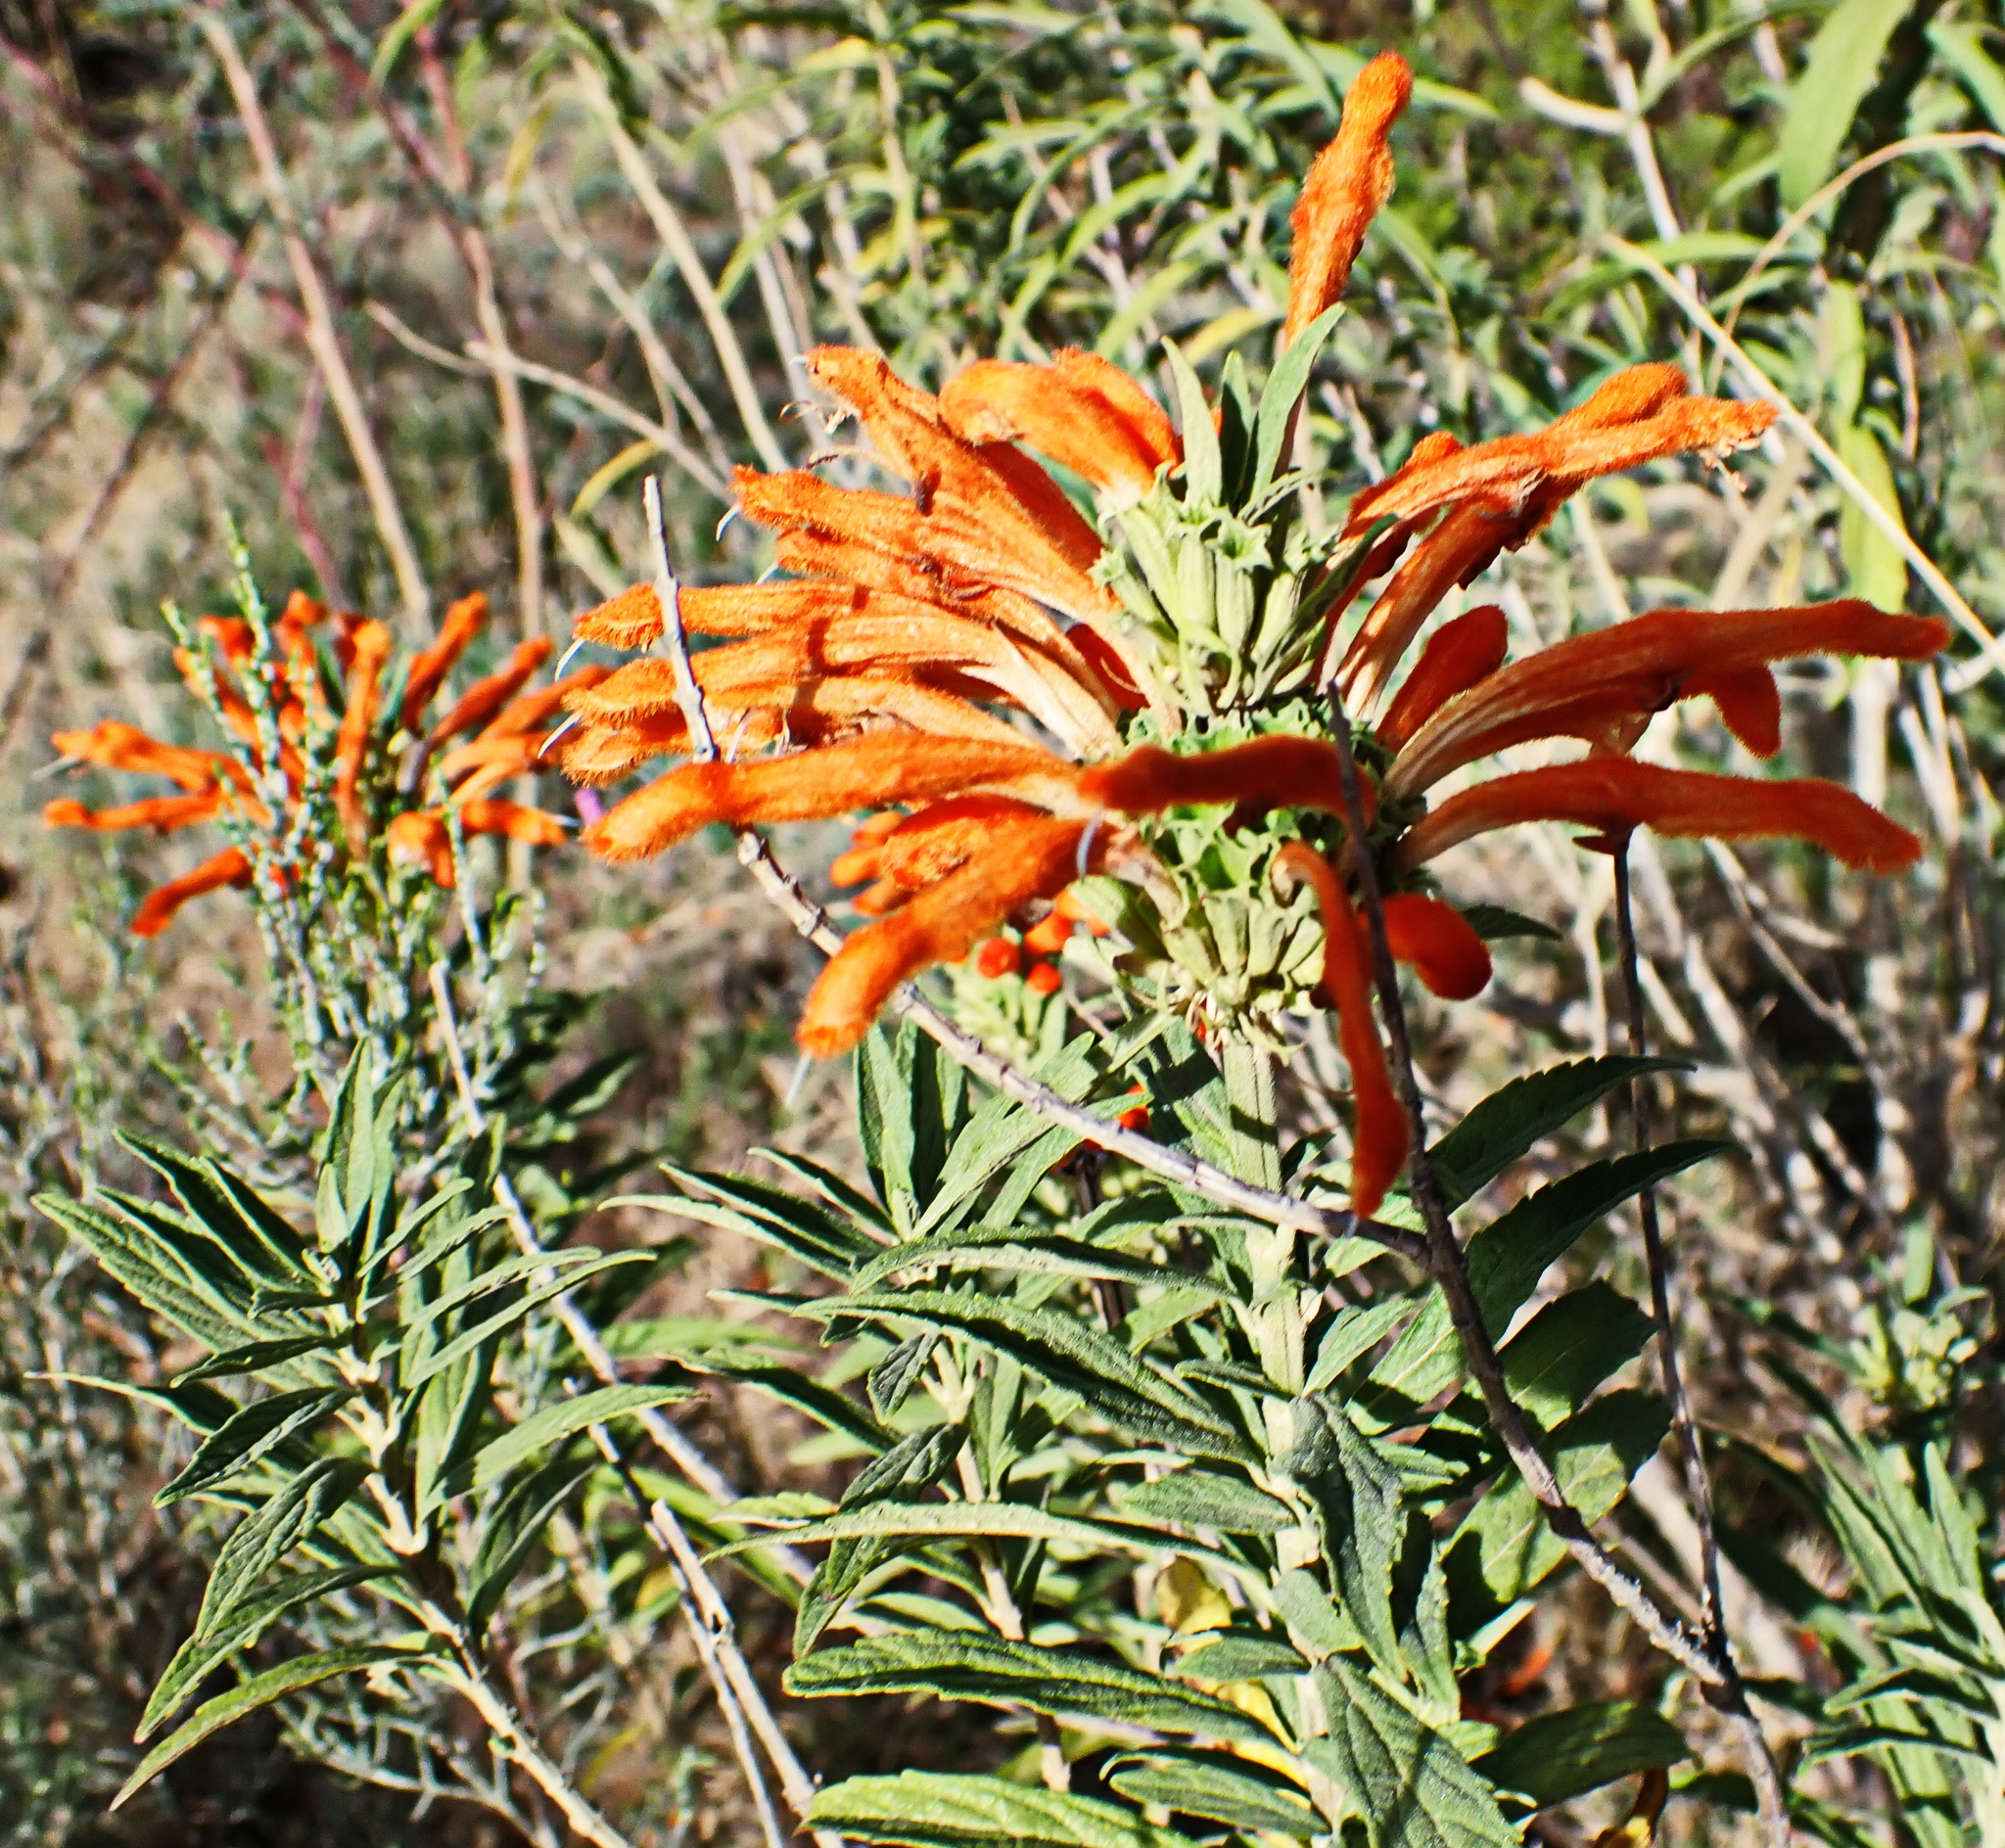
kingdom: Plantae
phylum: Tracheophyta
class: Magnoliopsida
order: Lamiales
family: Lamiaceae
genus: Leonotis
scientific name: Leonotis leonurus
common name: Lion's ear
